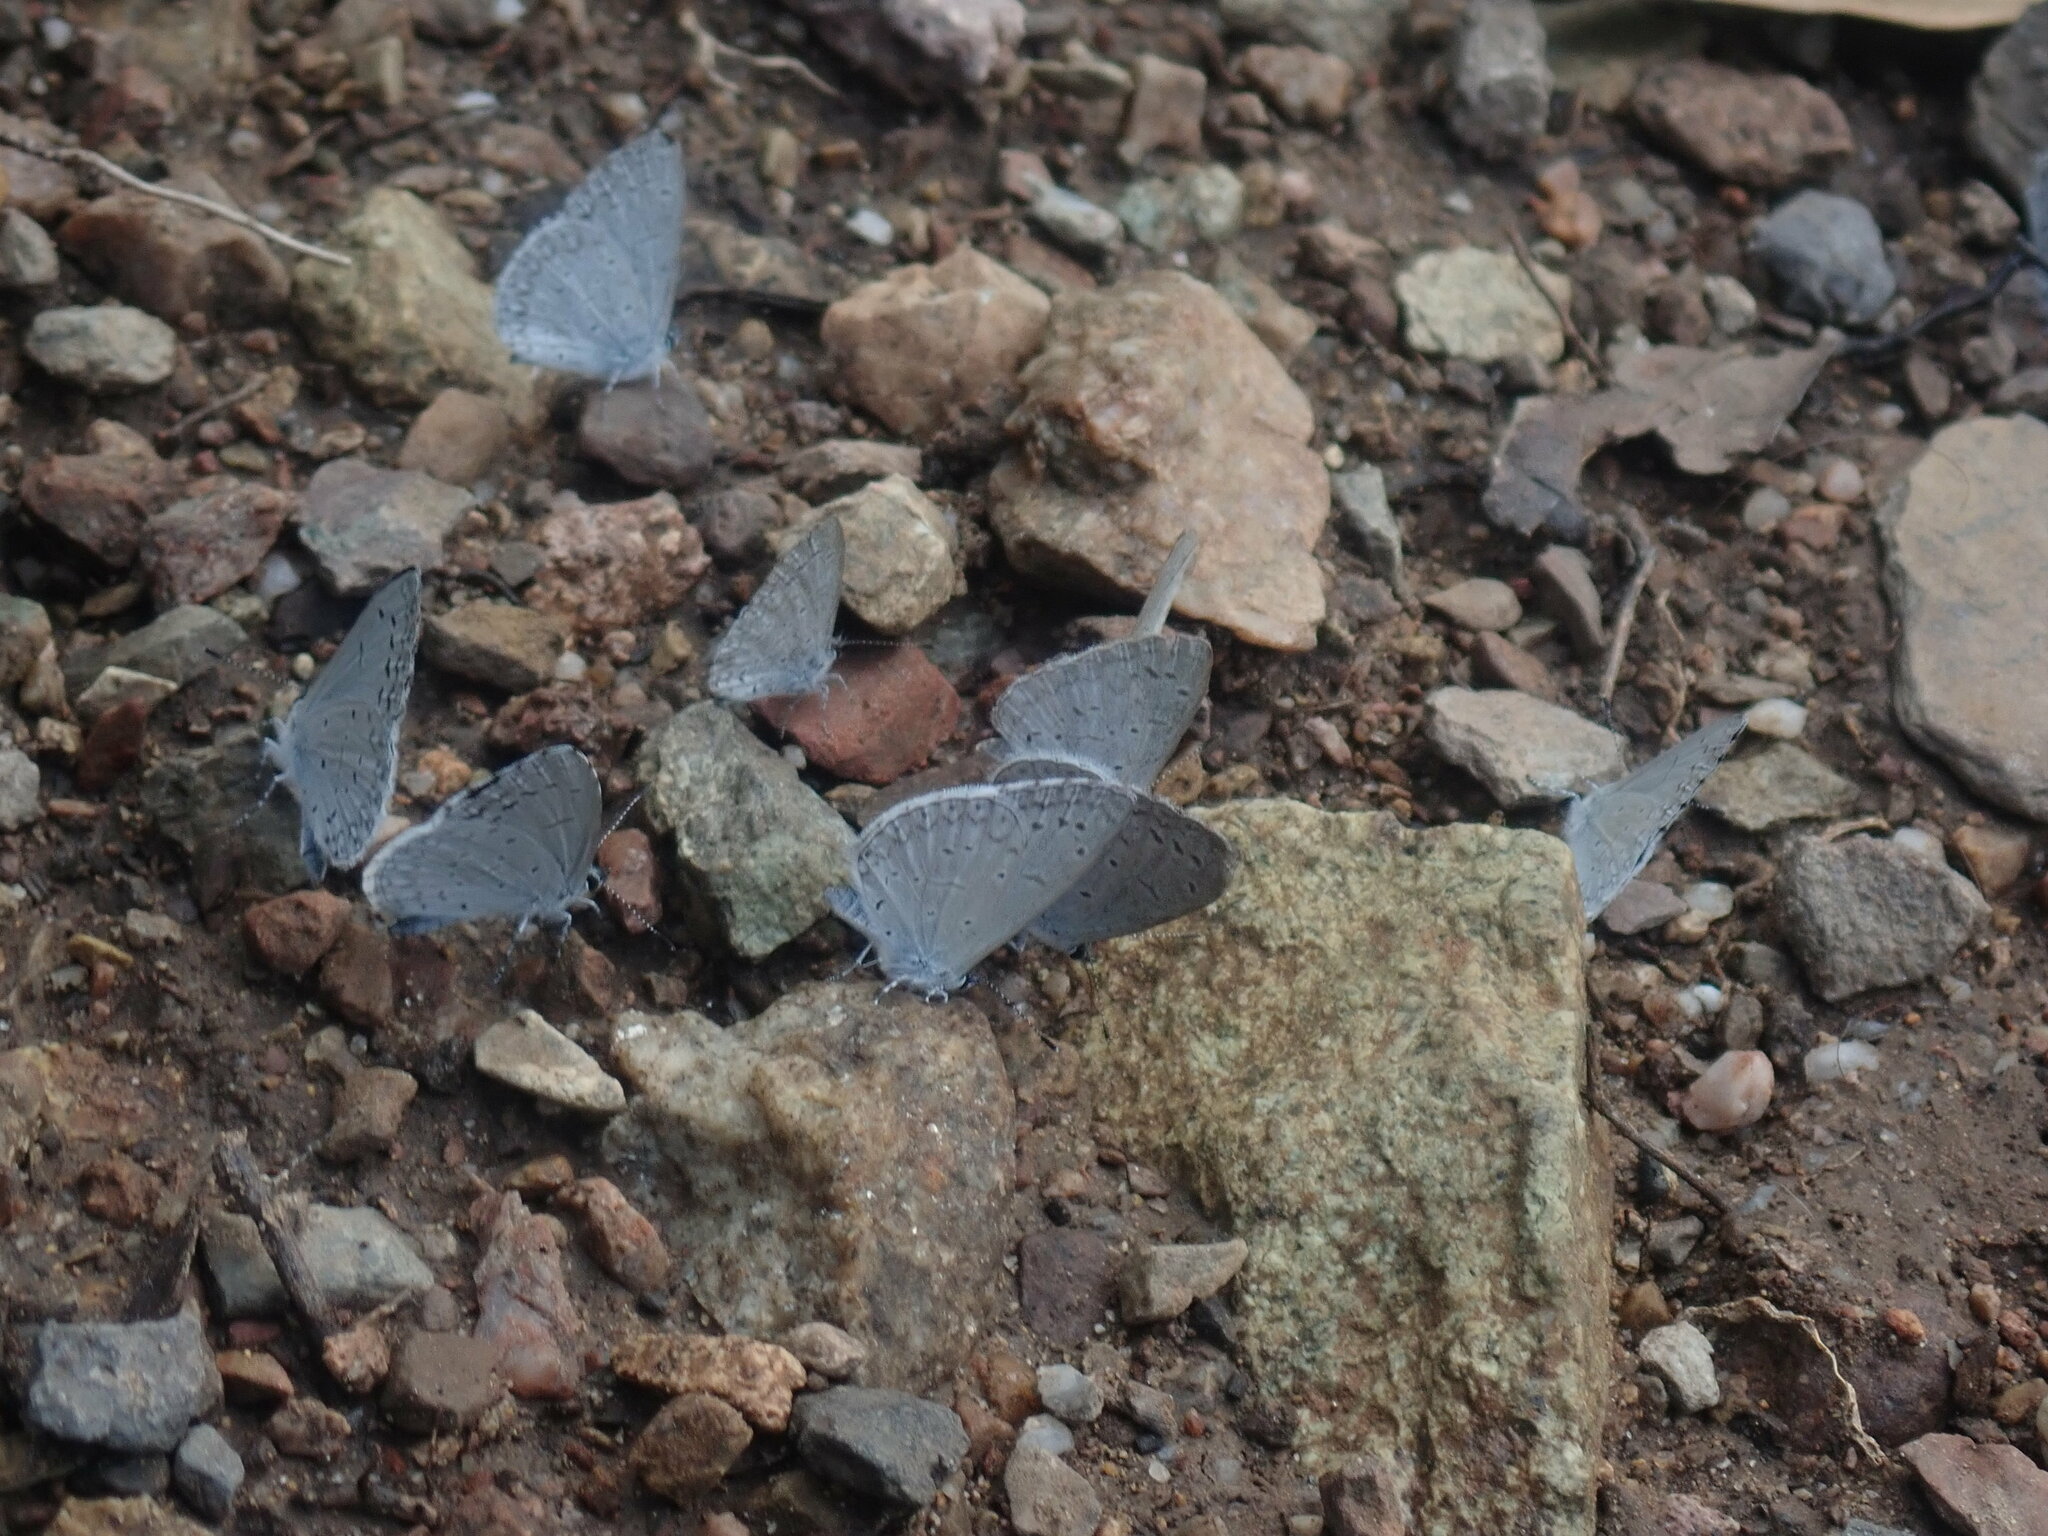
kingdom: Animalia
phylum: Arthropoda
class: Insecta
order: Lepidoptera
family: Lycaenidae
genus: Celastrina
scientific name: Celastrina ladon
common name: Spring azure
